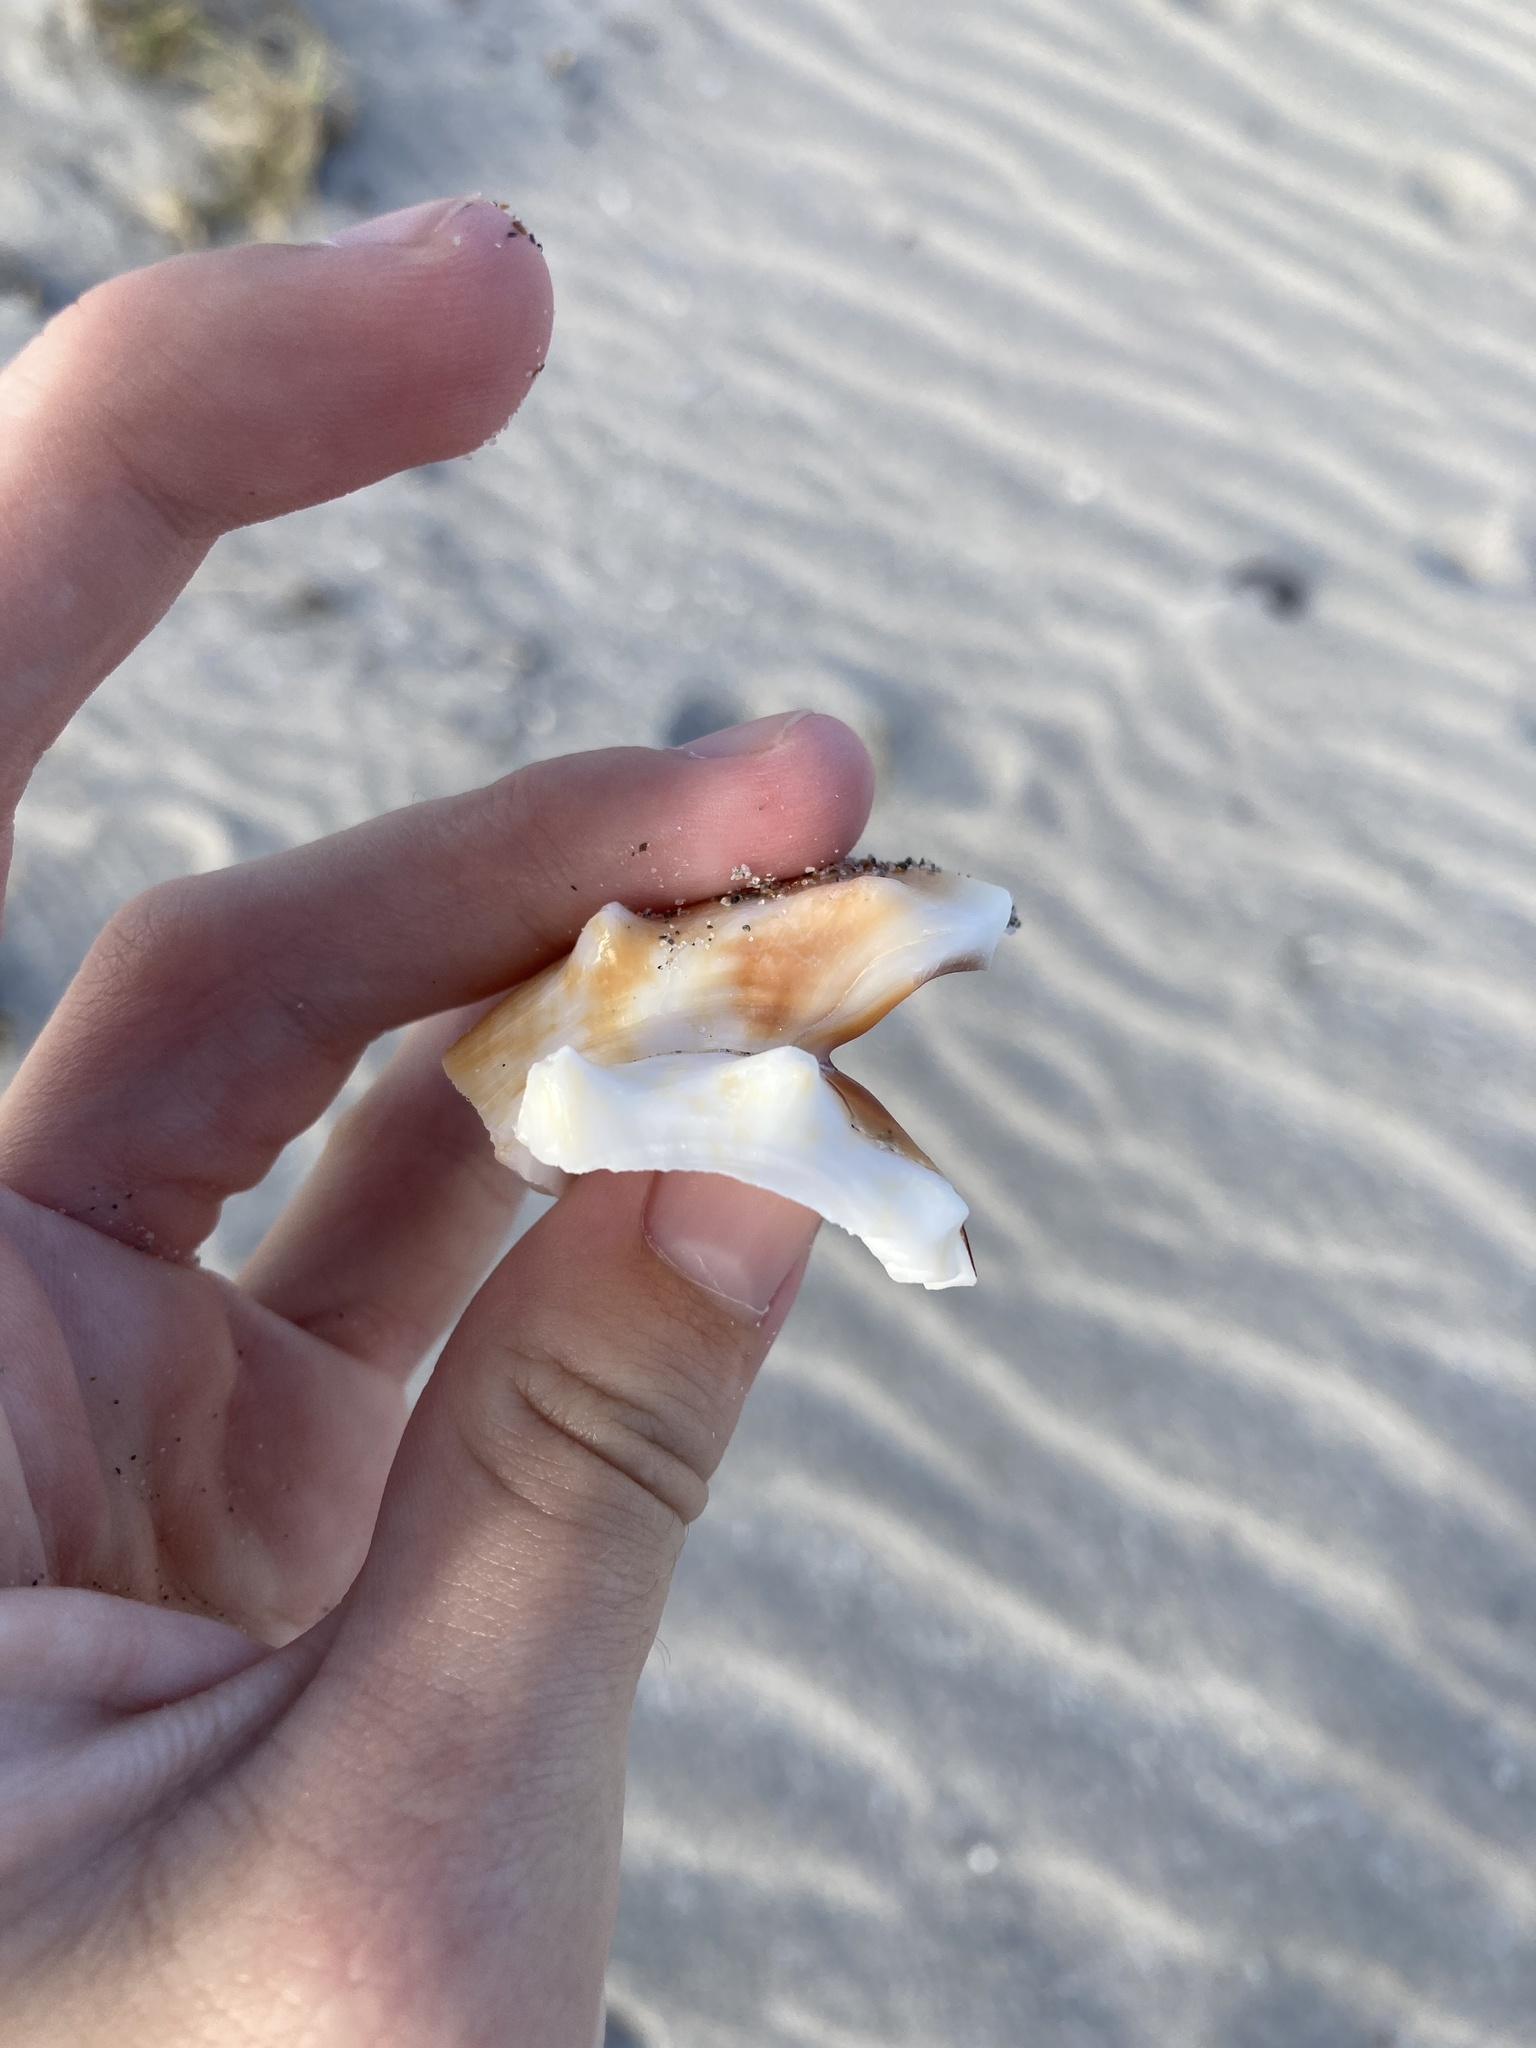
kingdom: Animalia
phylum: Mollusca
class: Gastropoda
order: Littorinimorpha
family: Strombidae
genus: Strombus
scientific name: Strombus alatus
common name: Florida fighting conch
